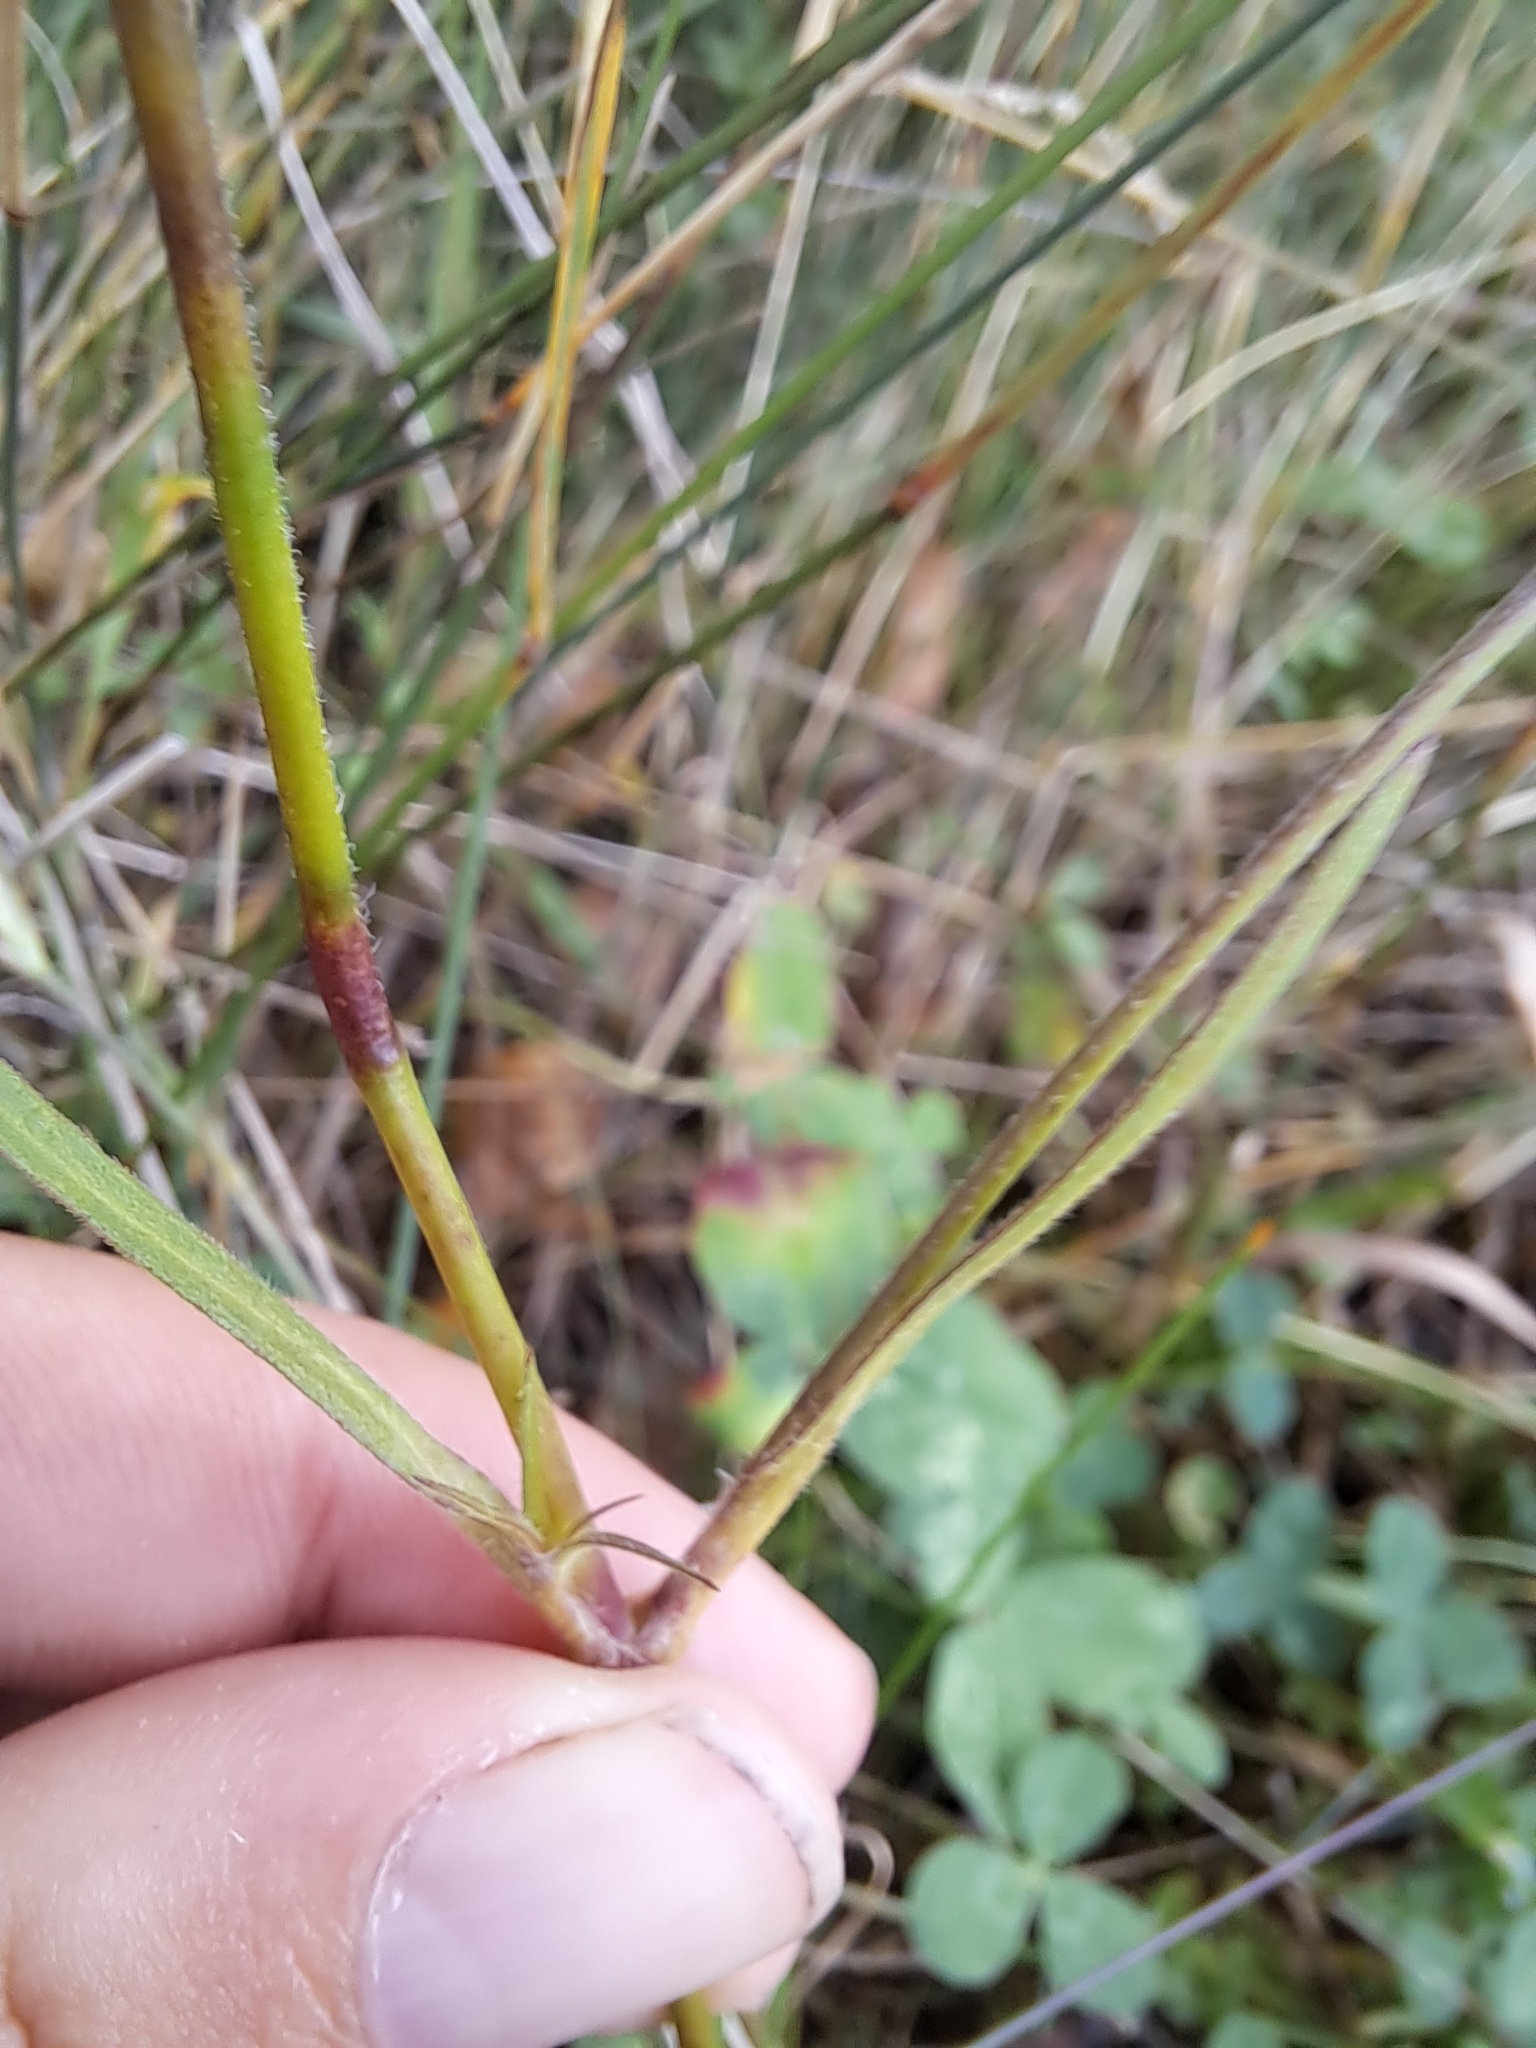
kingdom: Plantae
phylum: Tracheophyta
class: Magnoliopsida
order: Caryophyllales
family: Caryophyllaceae
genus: Dianthus
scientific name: Dianthus armeria
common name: Deptford pink
